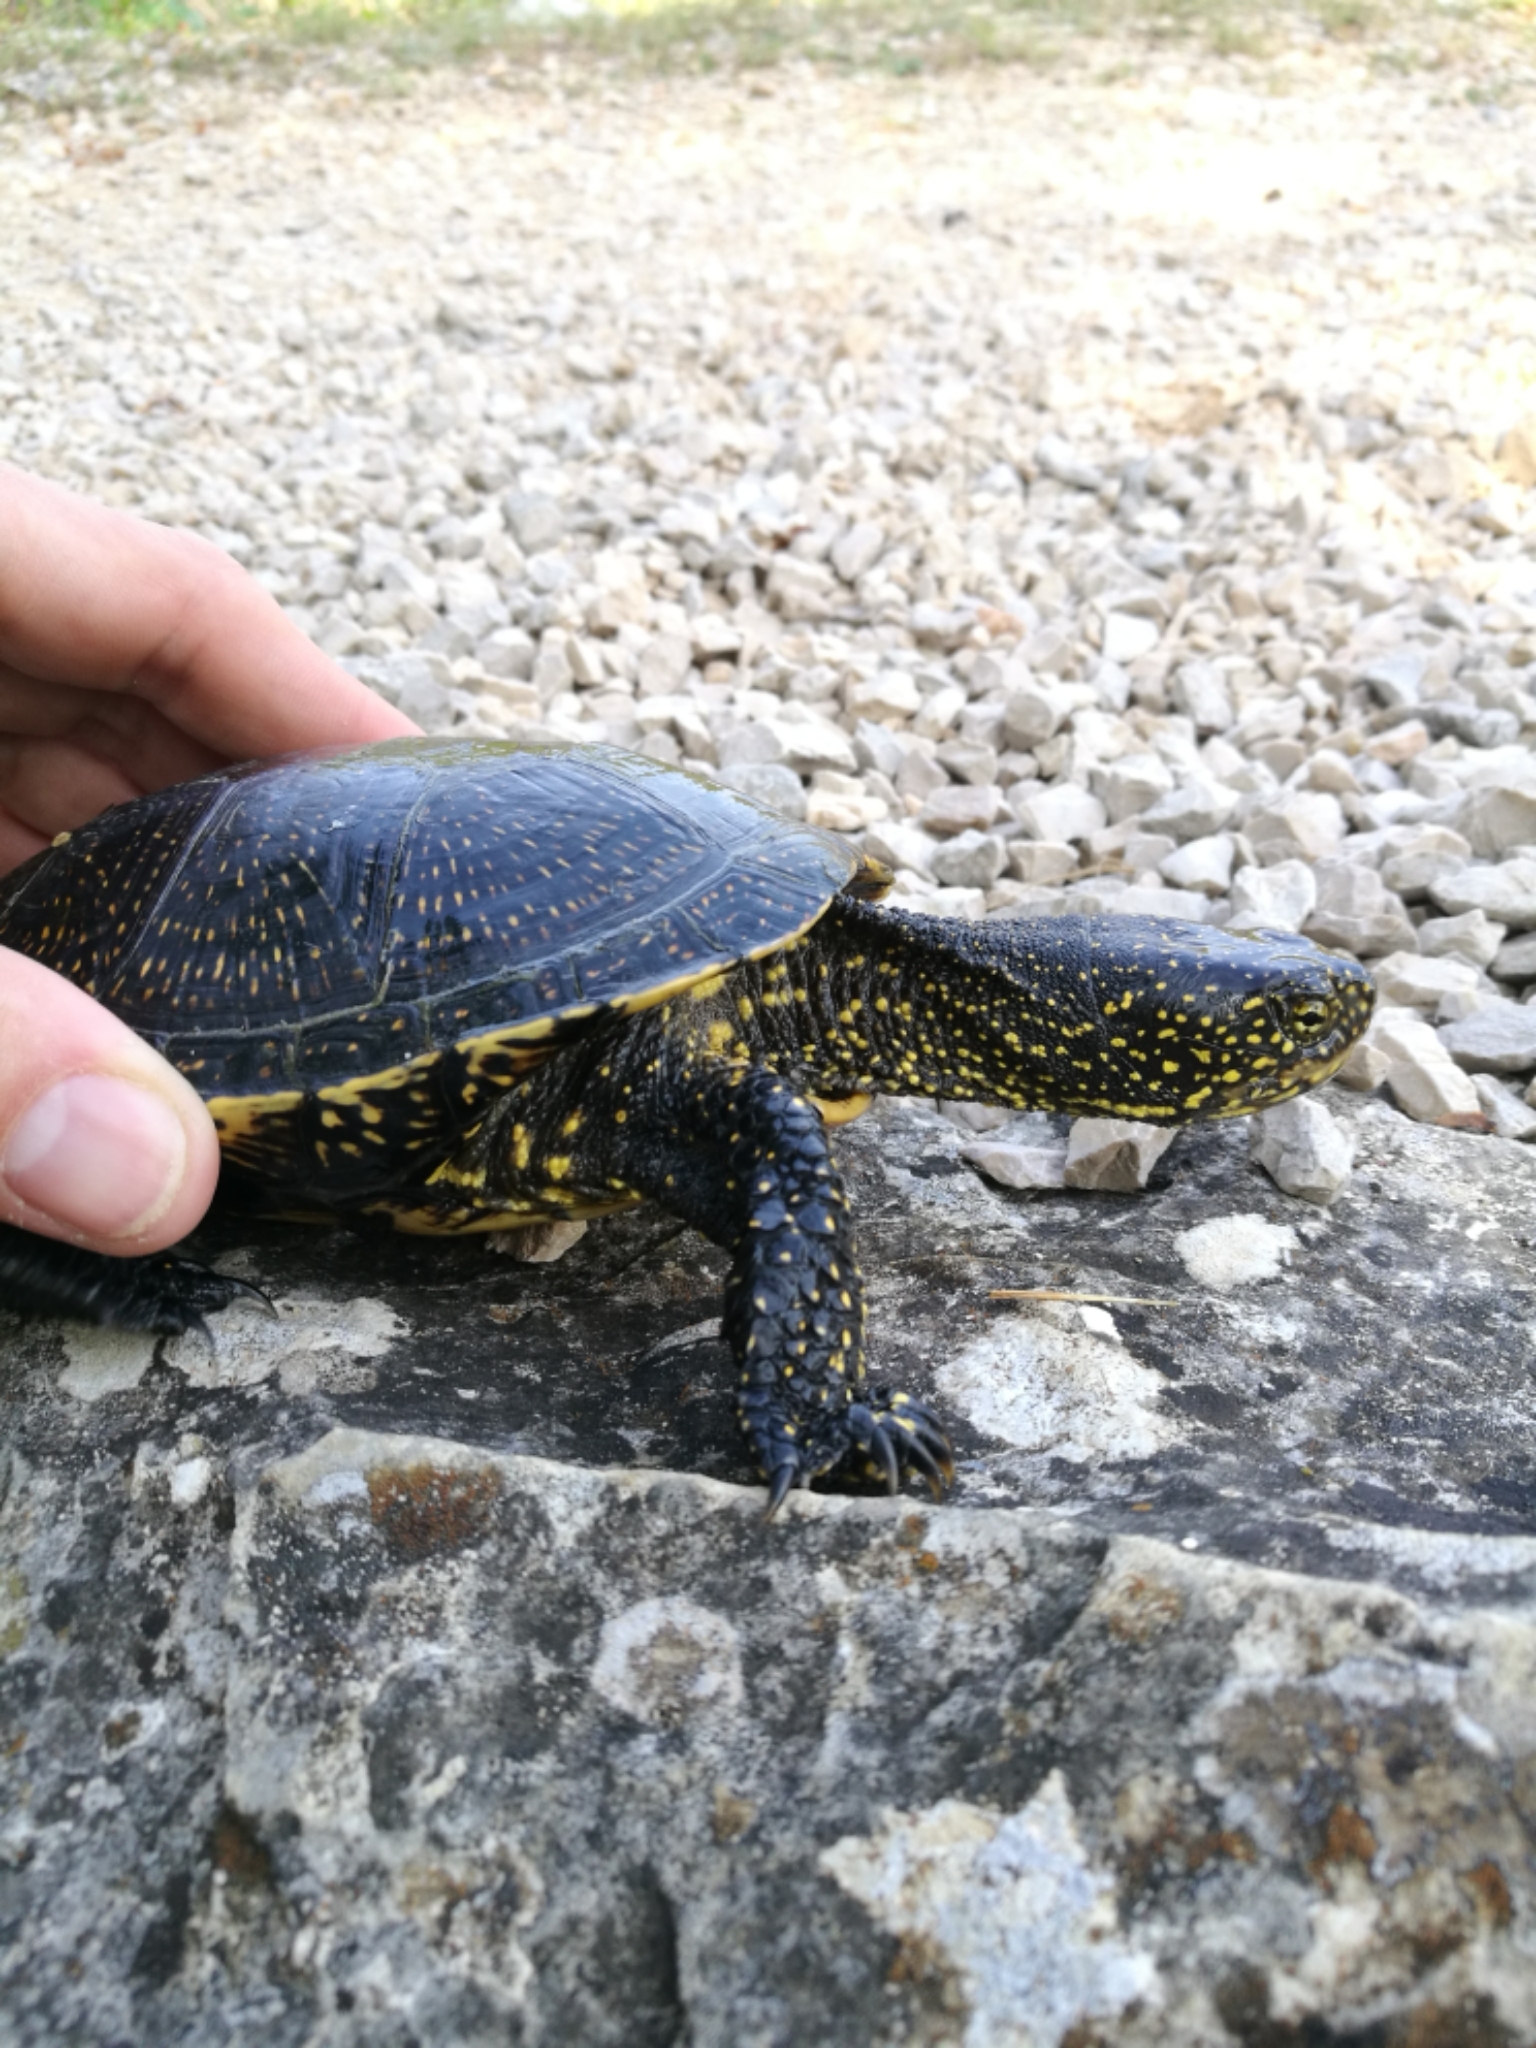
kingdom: Animalia
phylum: Chordata
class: Testudines
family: Emydidae
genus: Emys
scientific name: Emys orbicularis
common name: European pond turtle
